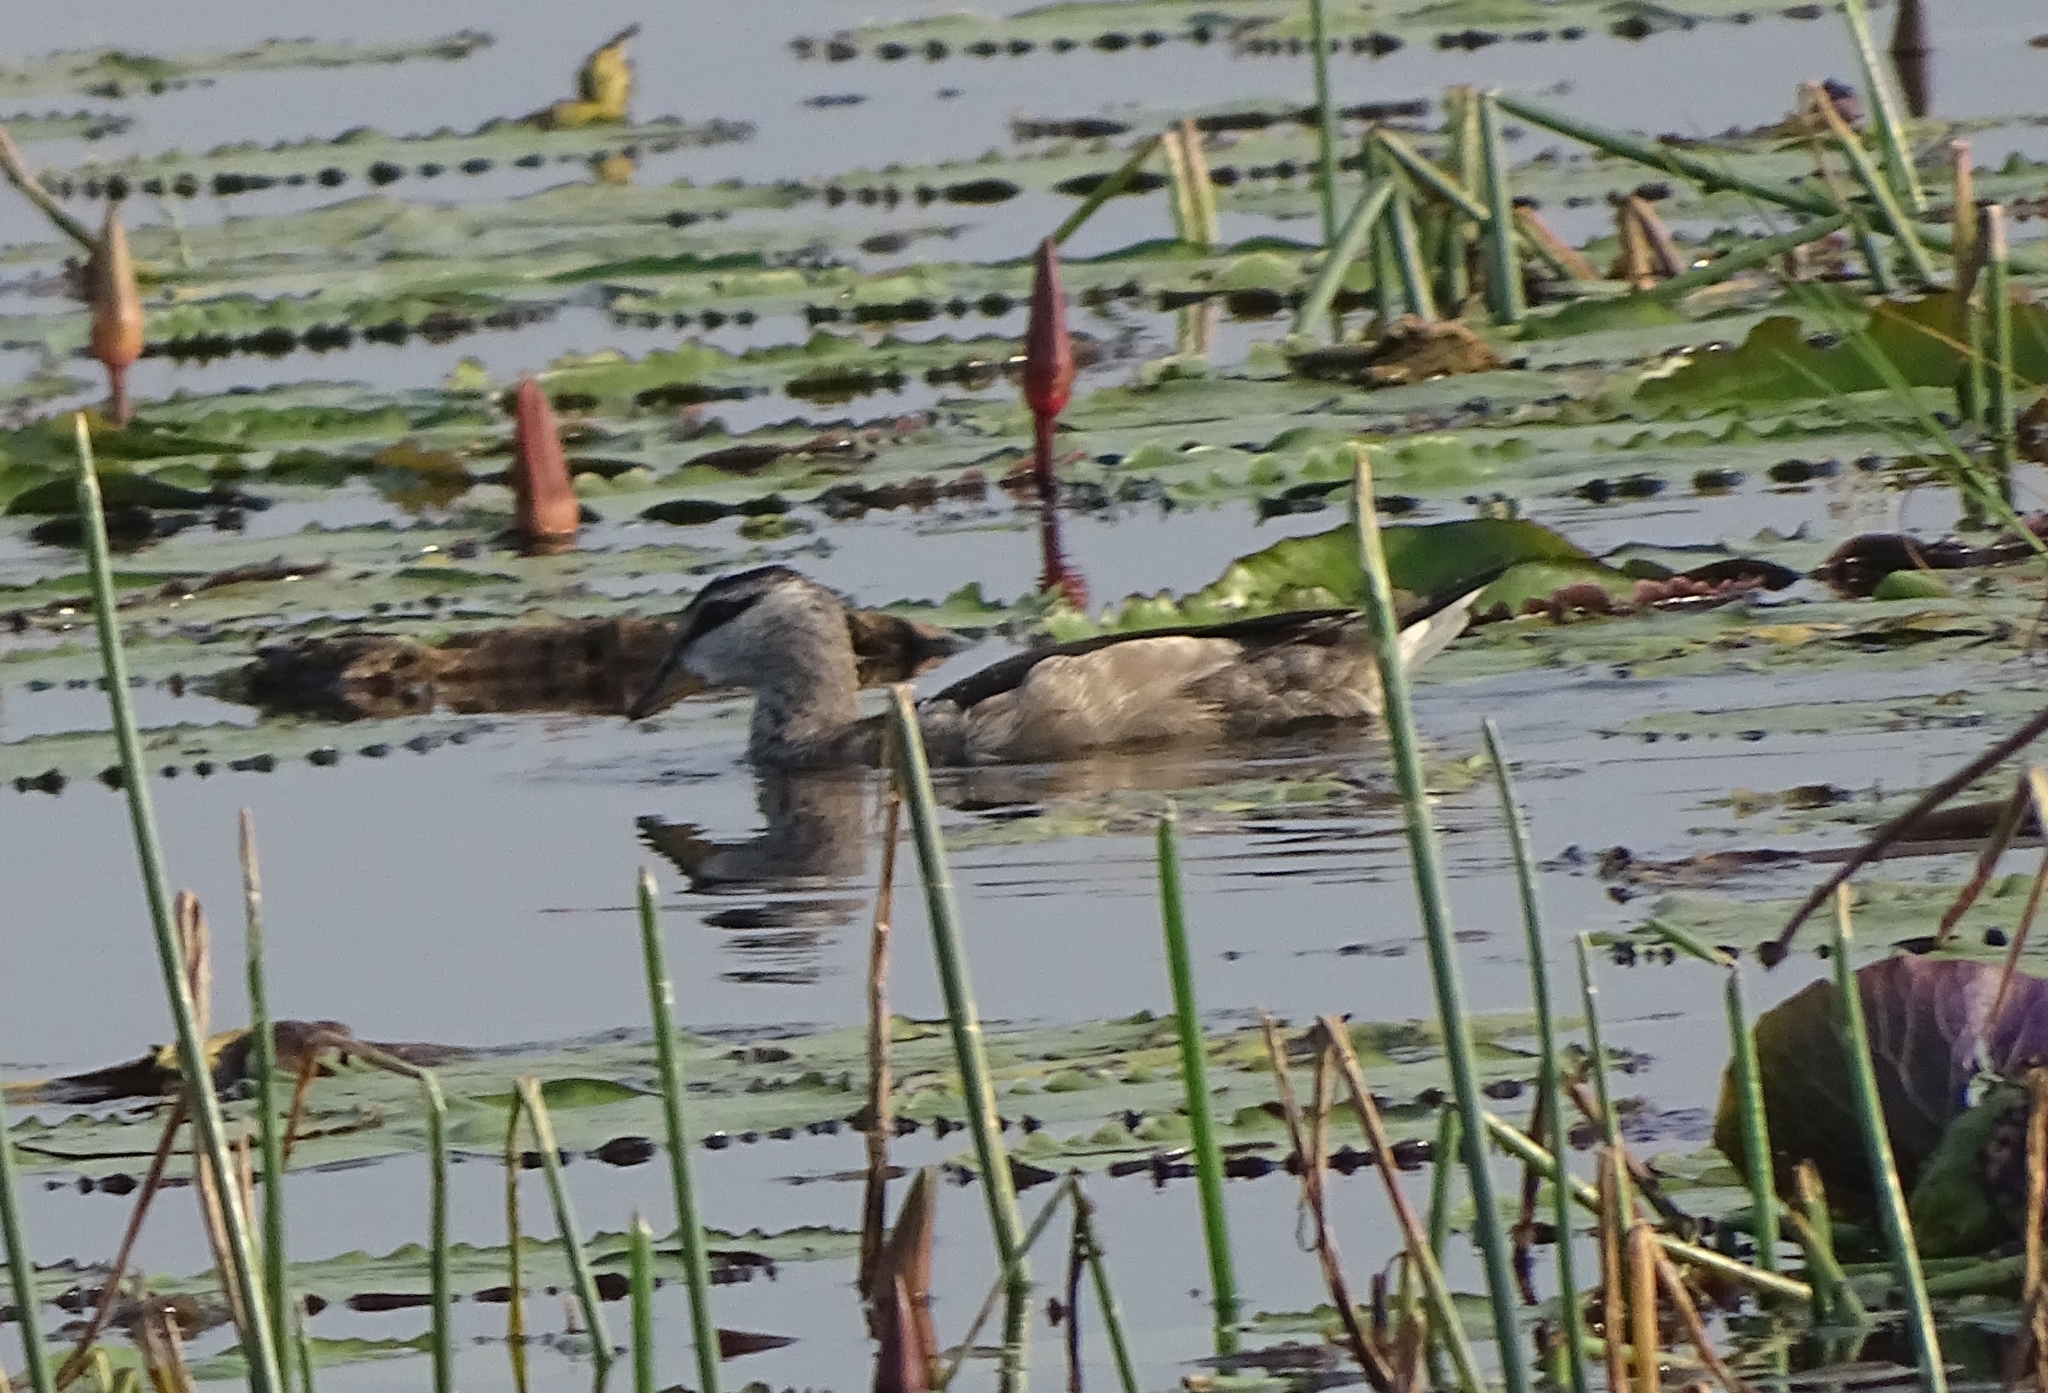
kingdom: Animalia
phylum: Chordata
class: Aves
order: Anseriformes
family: Anatidae
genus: Nettapus
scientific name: Nettapus coromandelianus
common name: Cotton pygmy-goose
